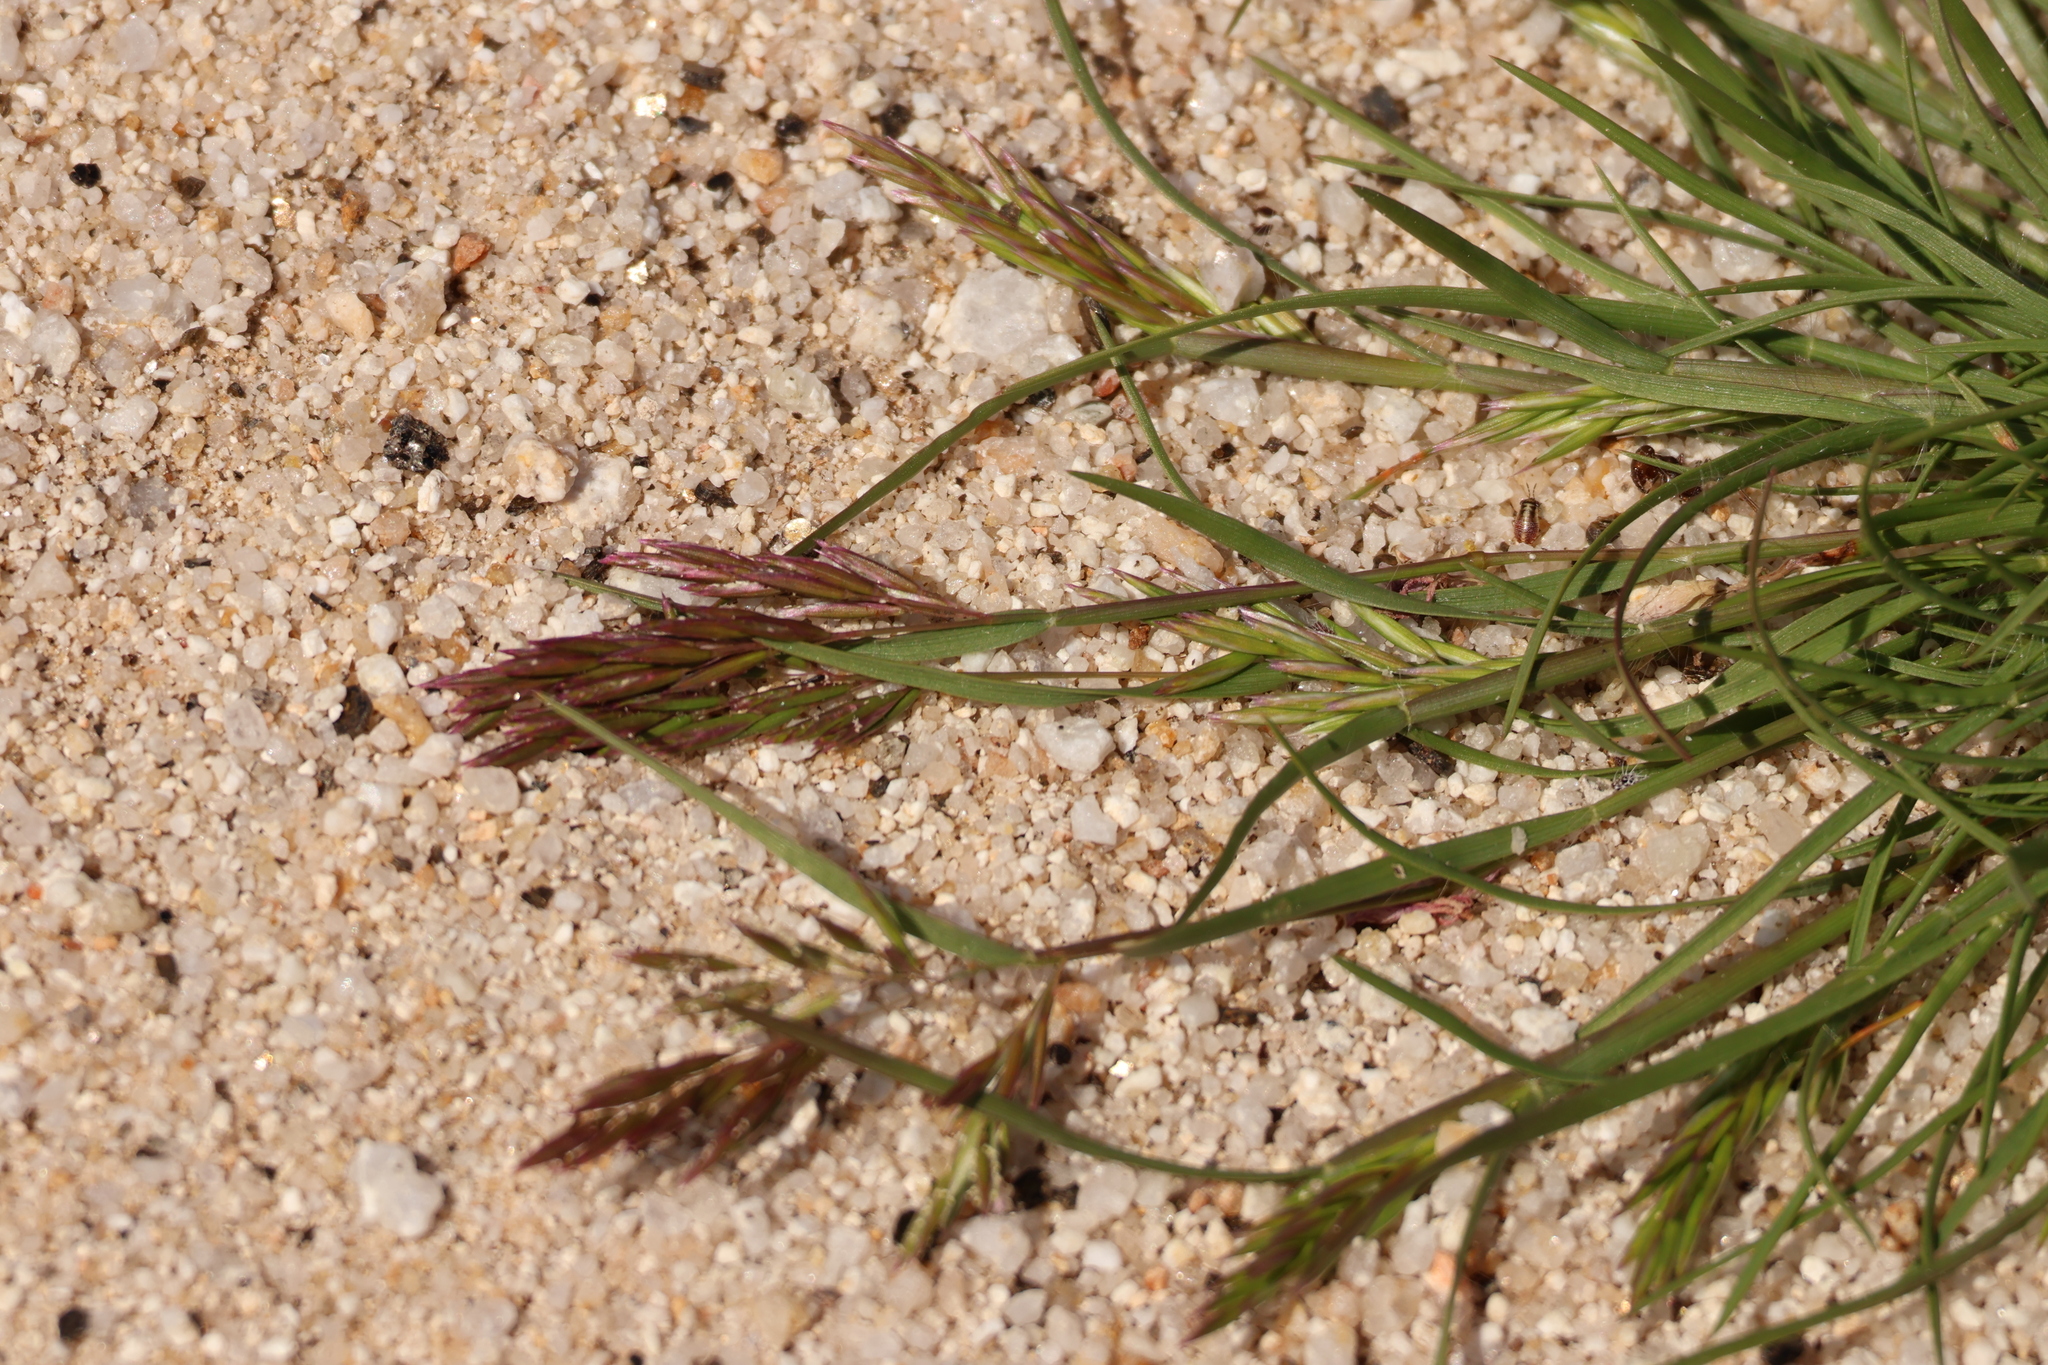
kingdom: Plantae
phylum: Tracheophyta
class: Liliopsida
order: Poales
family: Poaceae
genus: Schismus
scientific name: Schismus arabicus
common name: Arabian schismus
